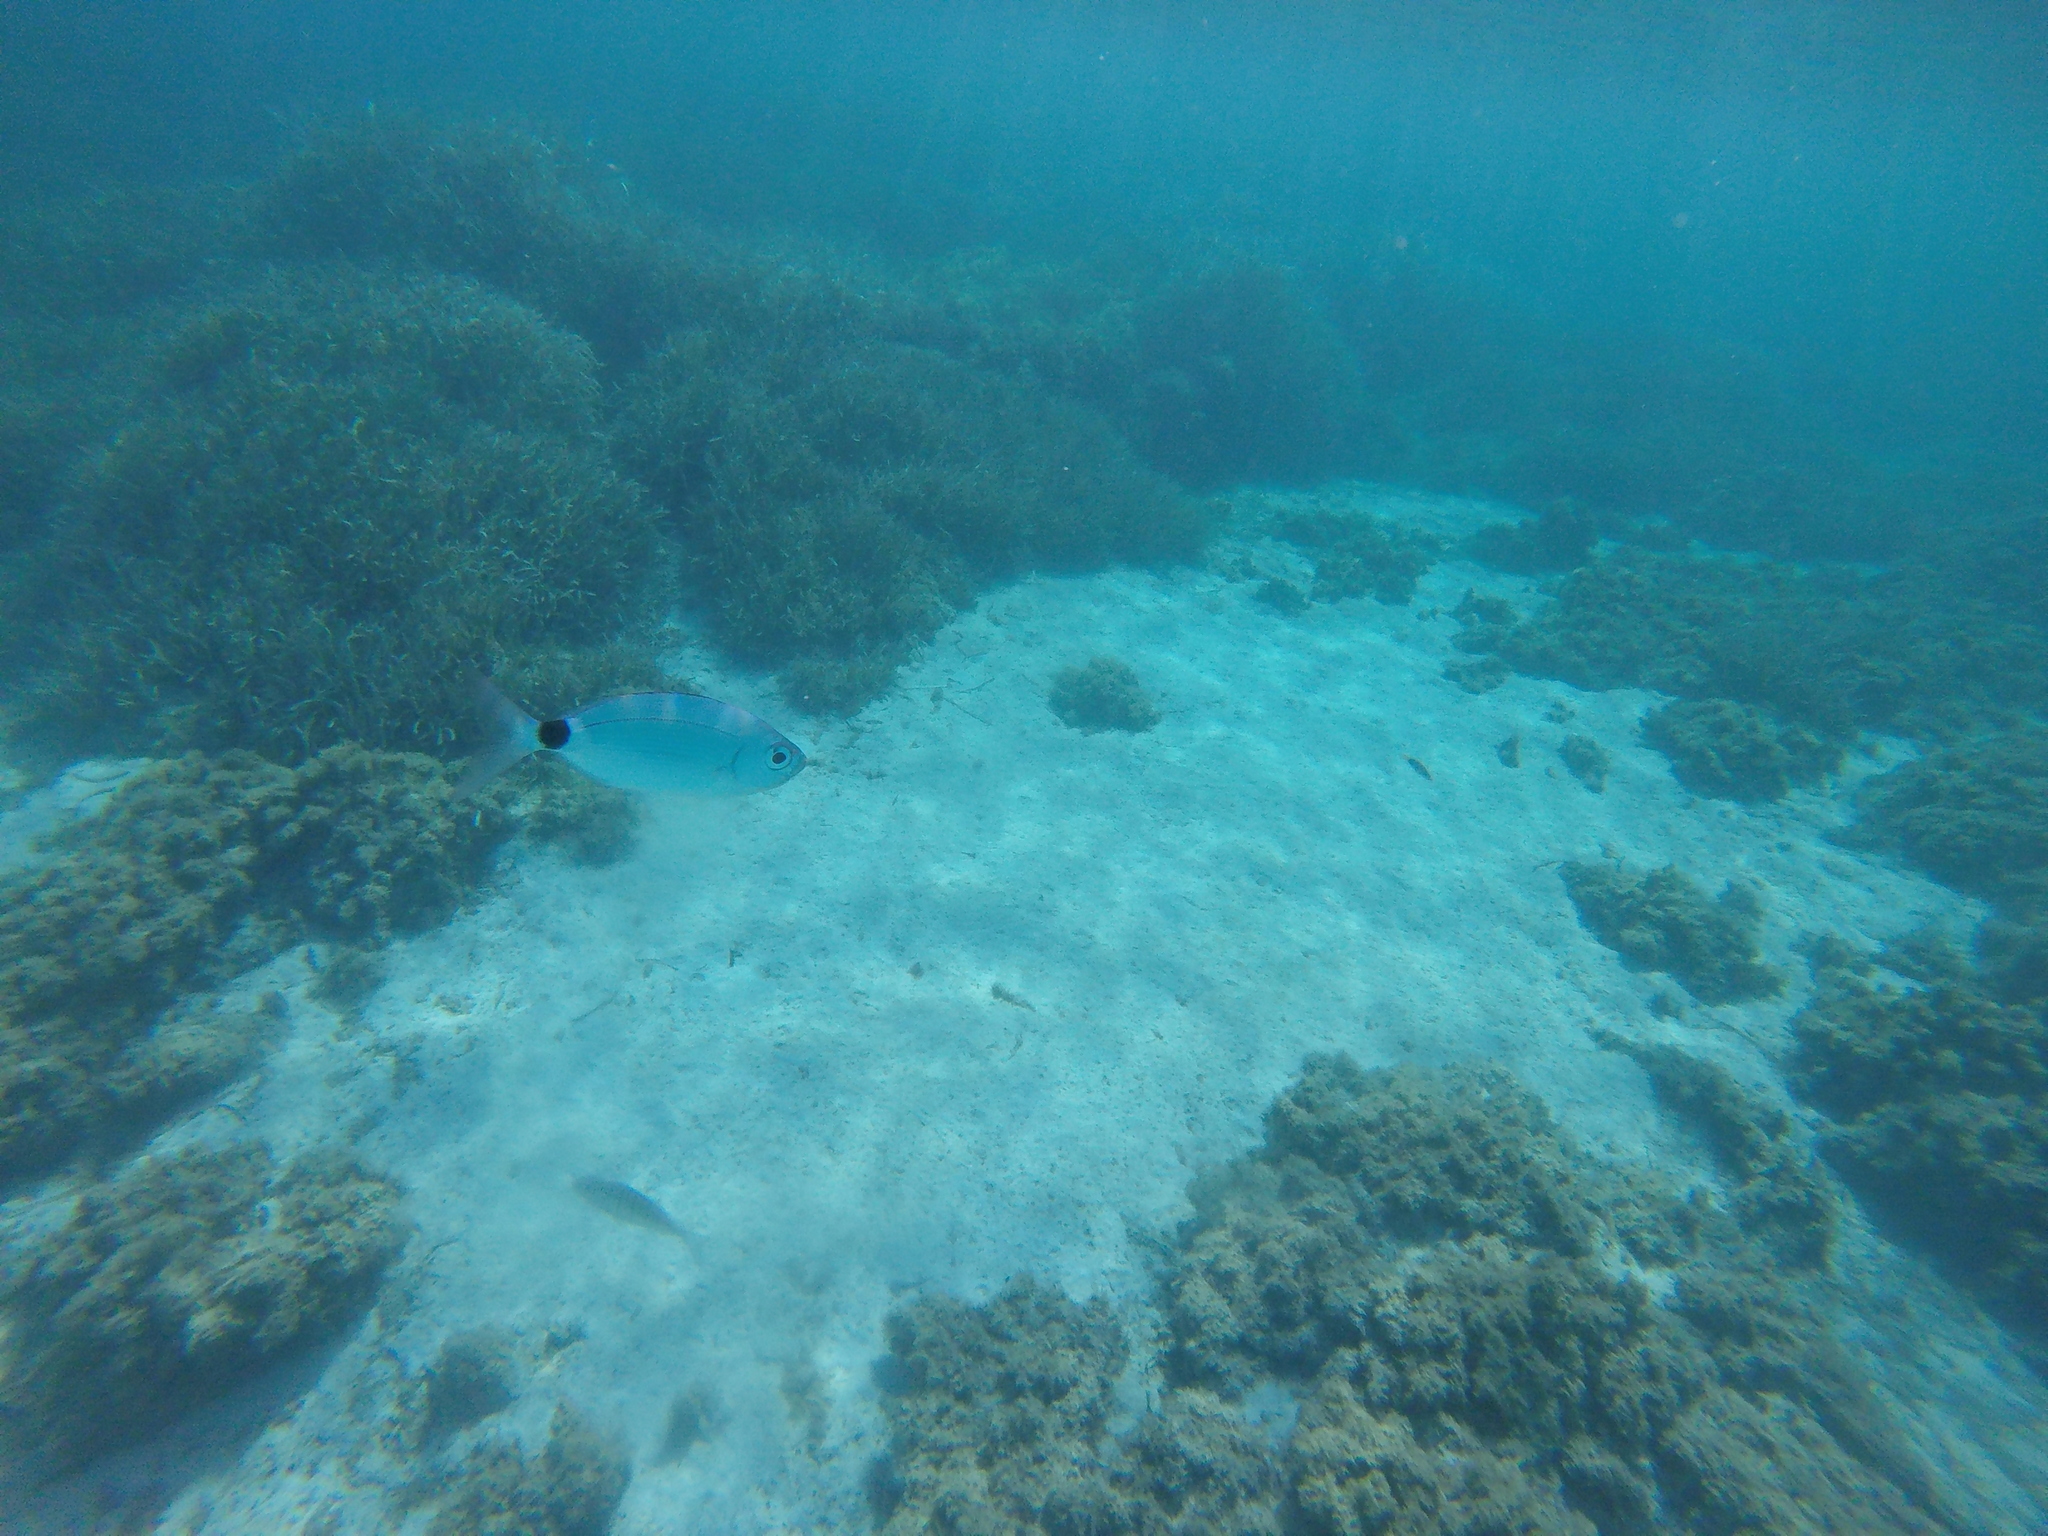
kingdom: Animalia
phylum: Chordata
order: Perciformes
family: Sparidae
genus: Oblada
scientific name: Oblada melanura
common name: Saddled seabream
